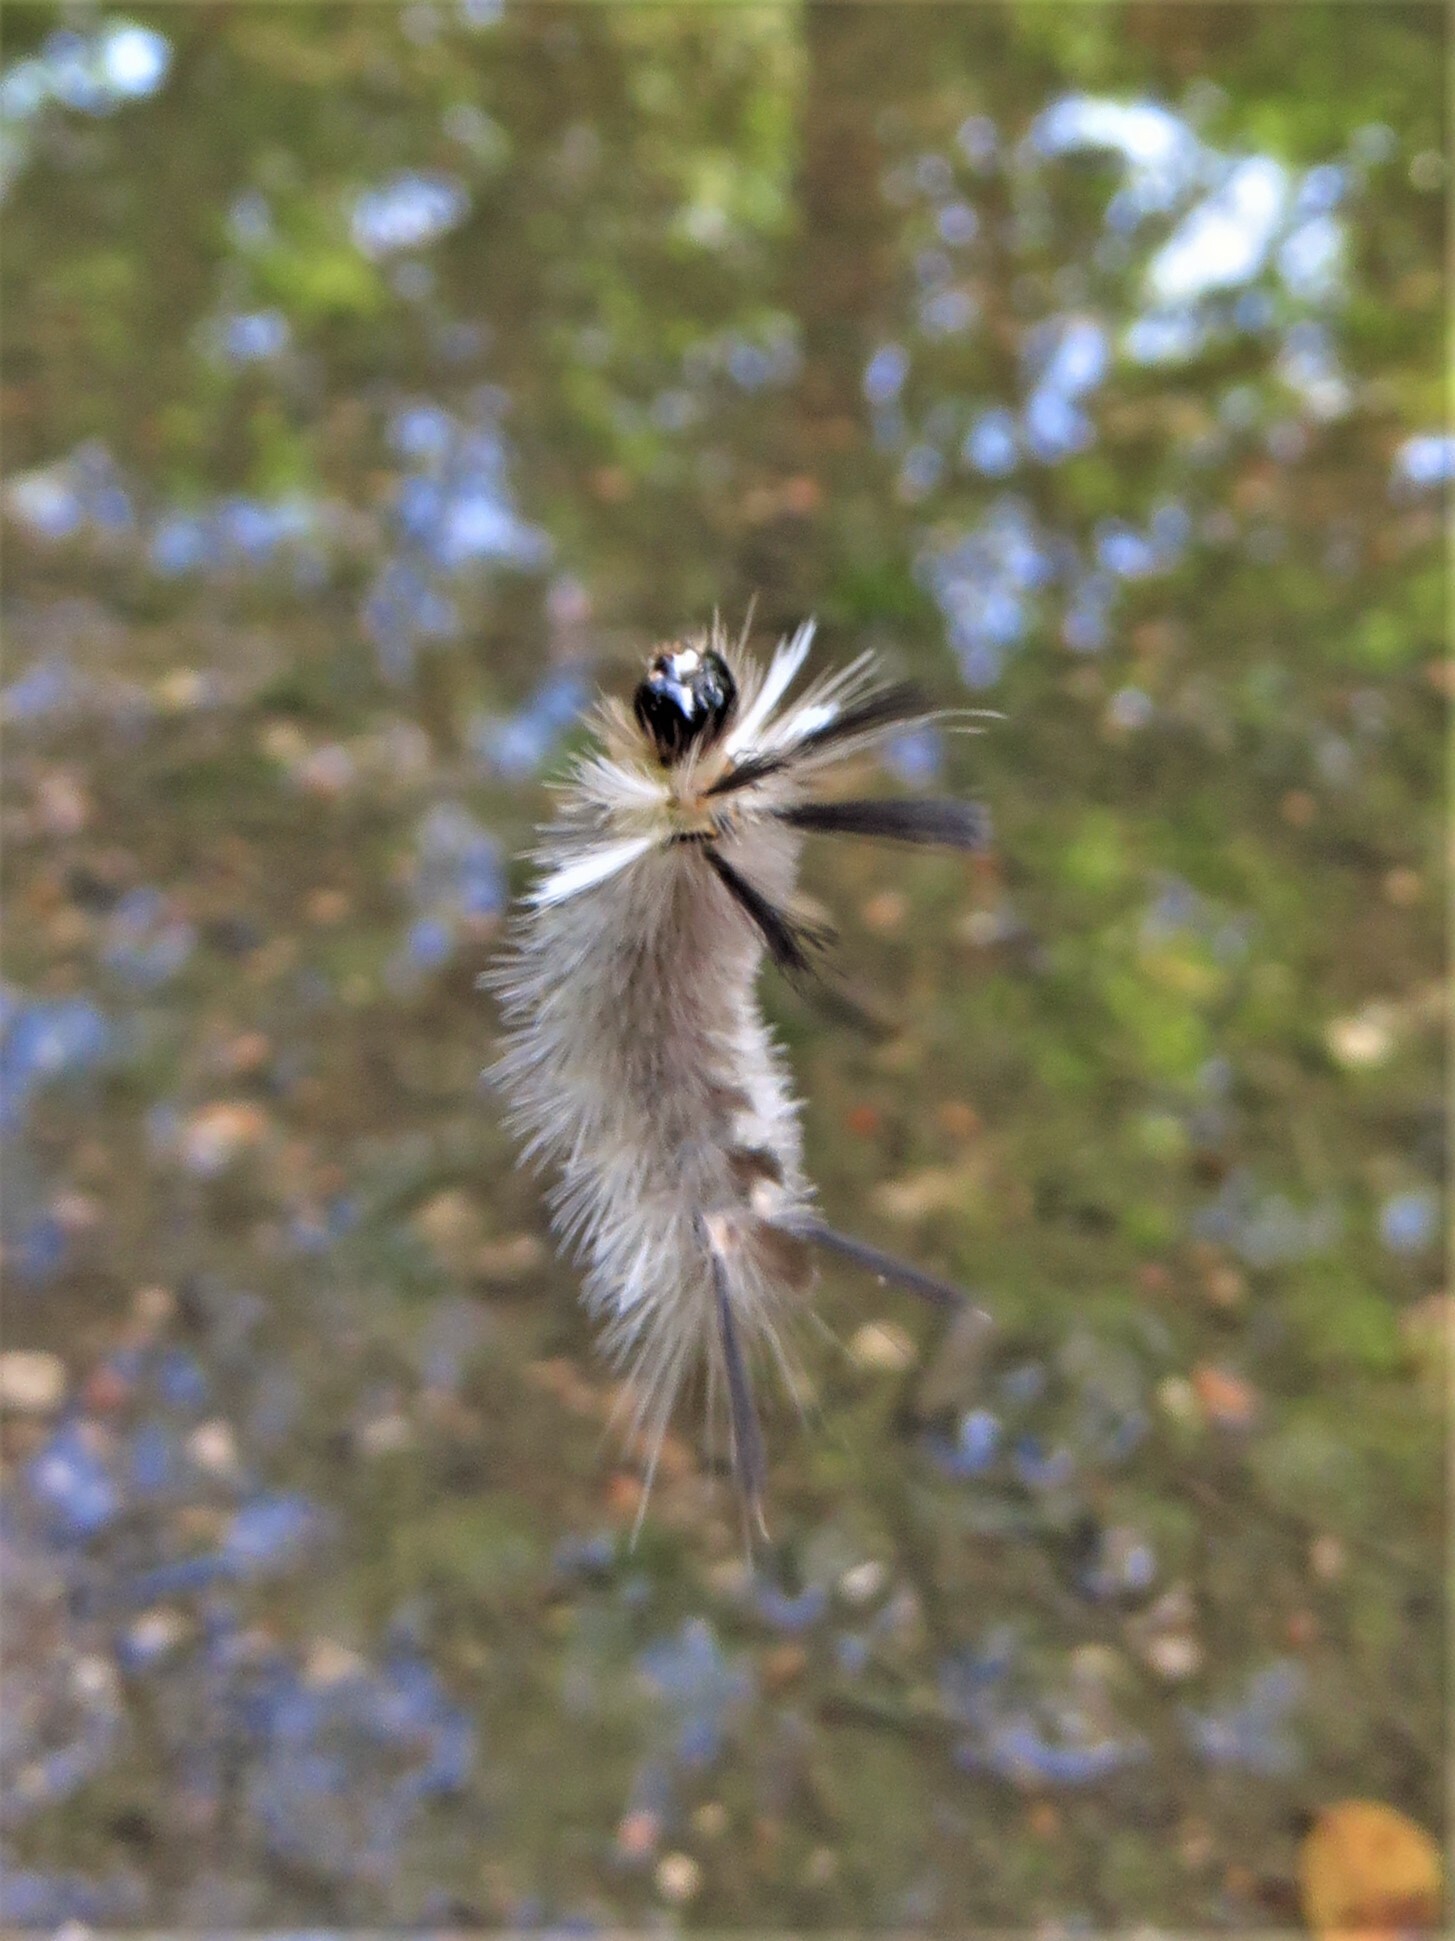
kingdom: Animalia
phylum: Arthropoda
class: Insecta
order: Lepidoptera
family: Erebidae
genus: Halysidota
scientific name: Halysidota tessellaris
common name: Banded tussock moth
